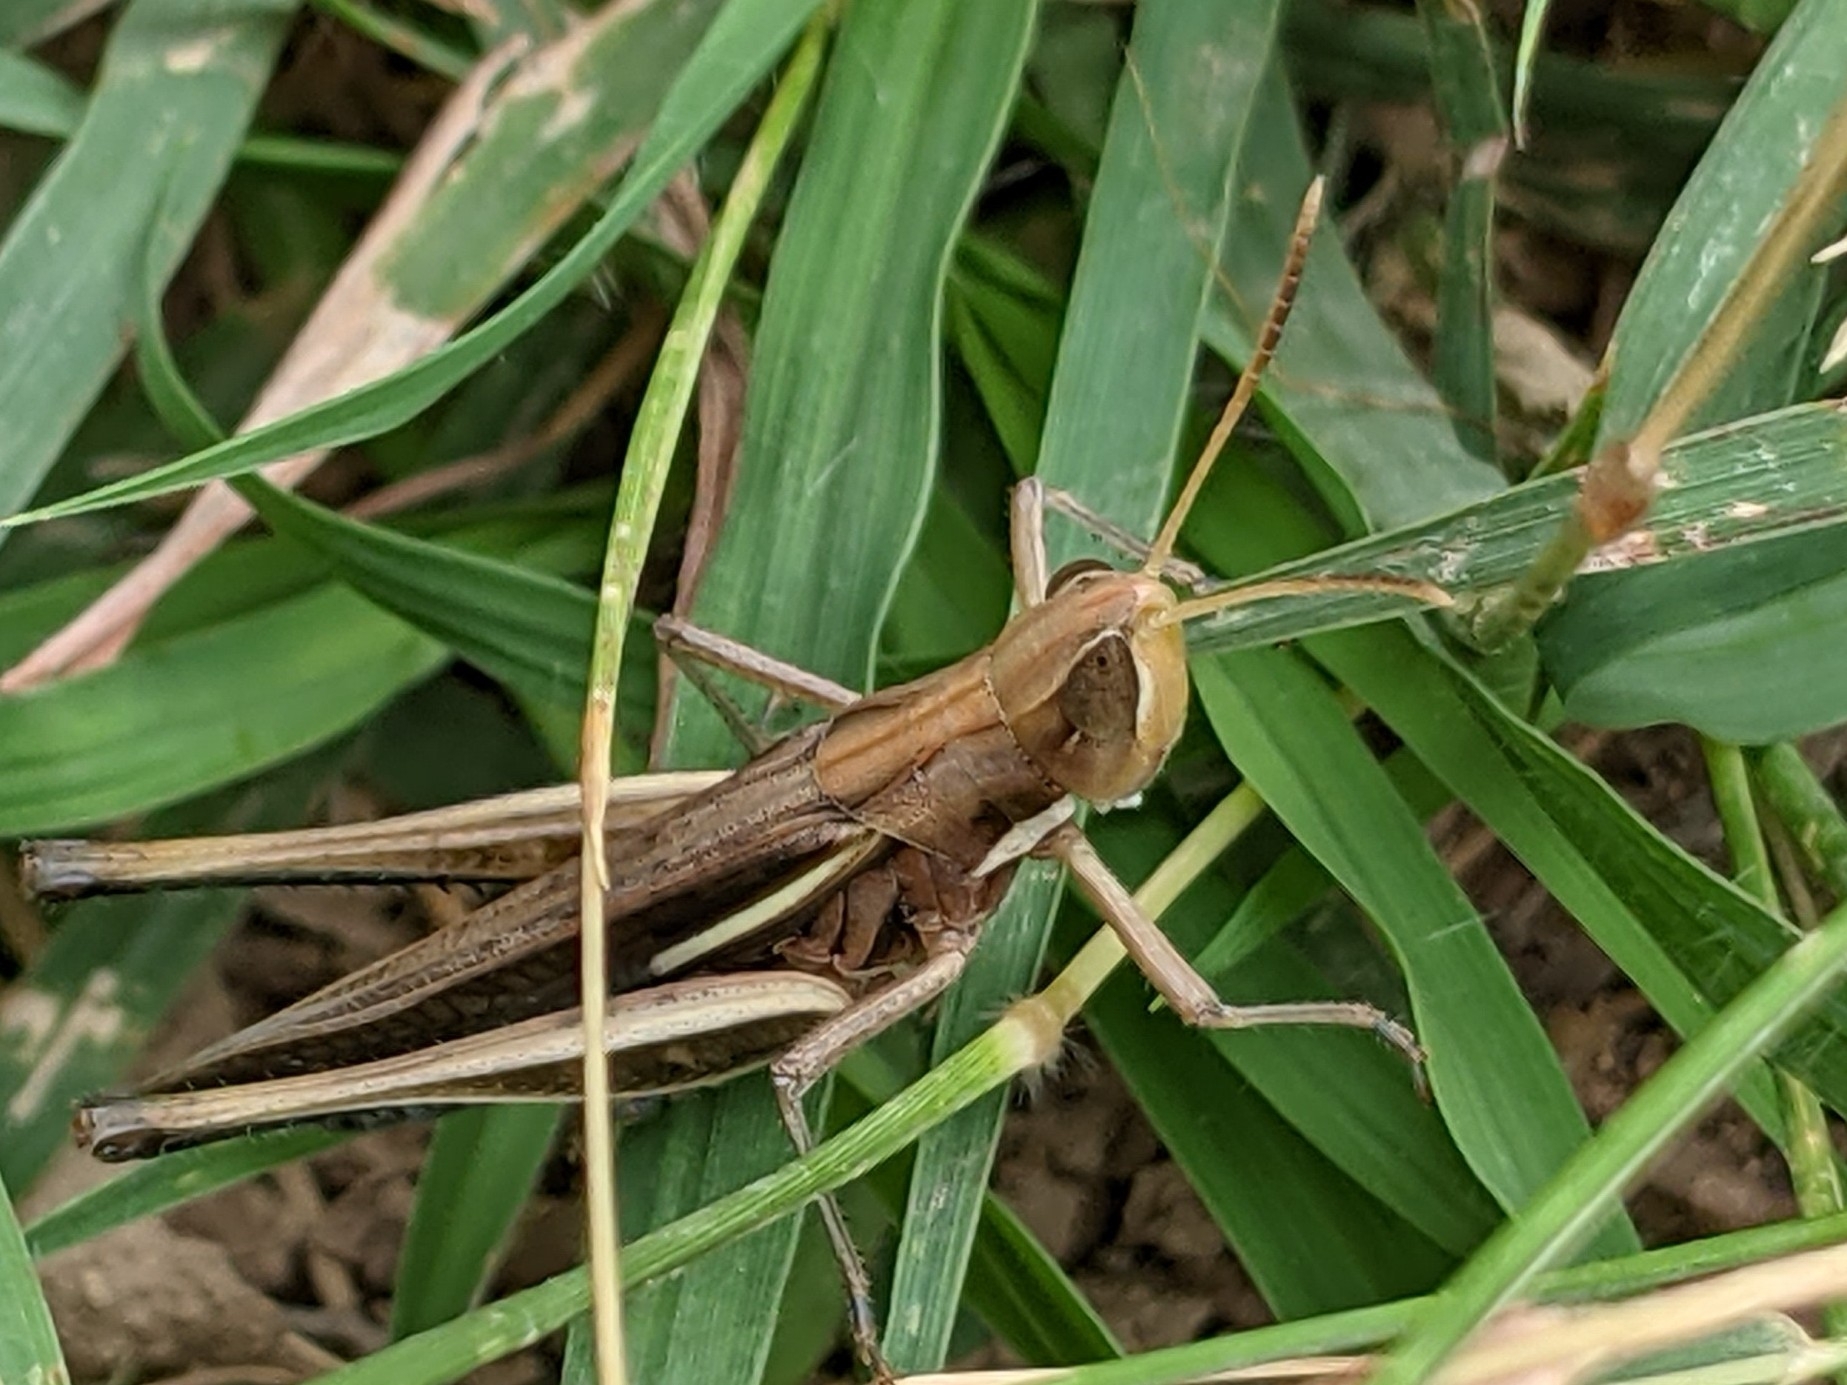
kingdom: Animalia
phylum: Arthropoda
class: Insecta
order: Orthoptera
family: Acrididae
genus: Syrbula
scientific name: Syrbula montezuma
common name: Montezuma's grasshopper
